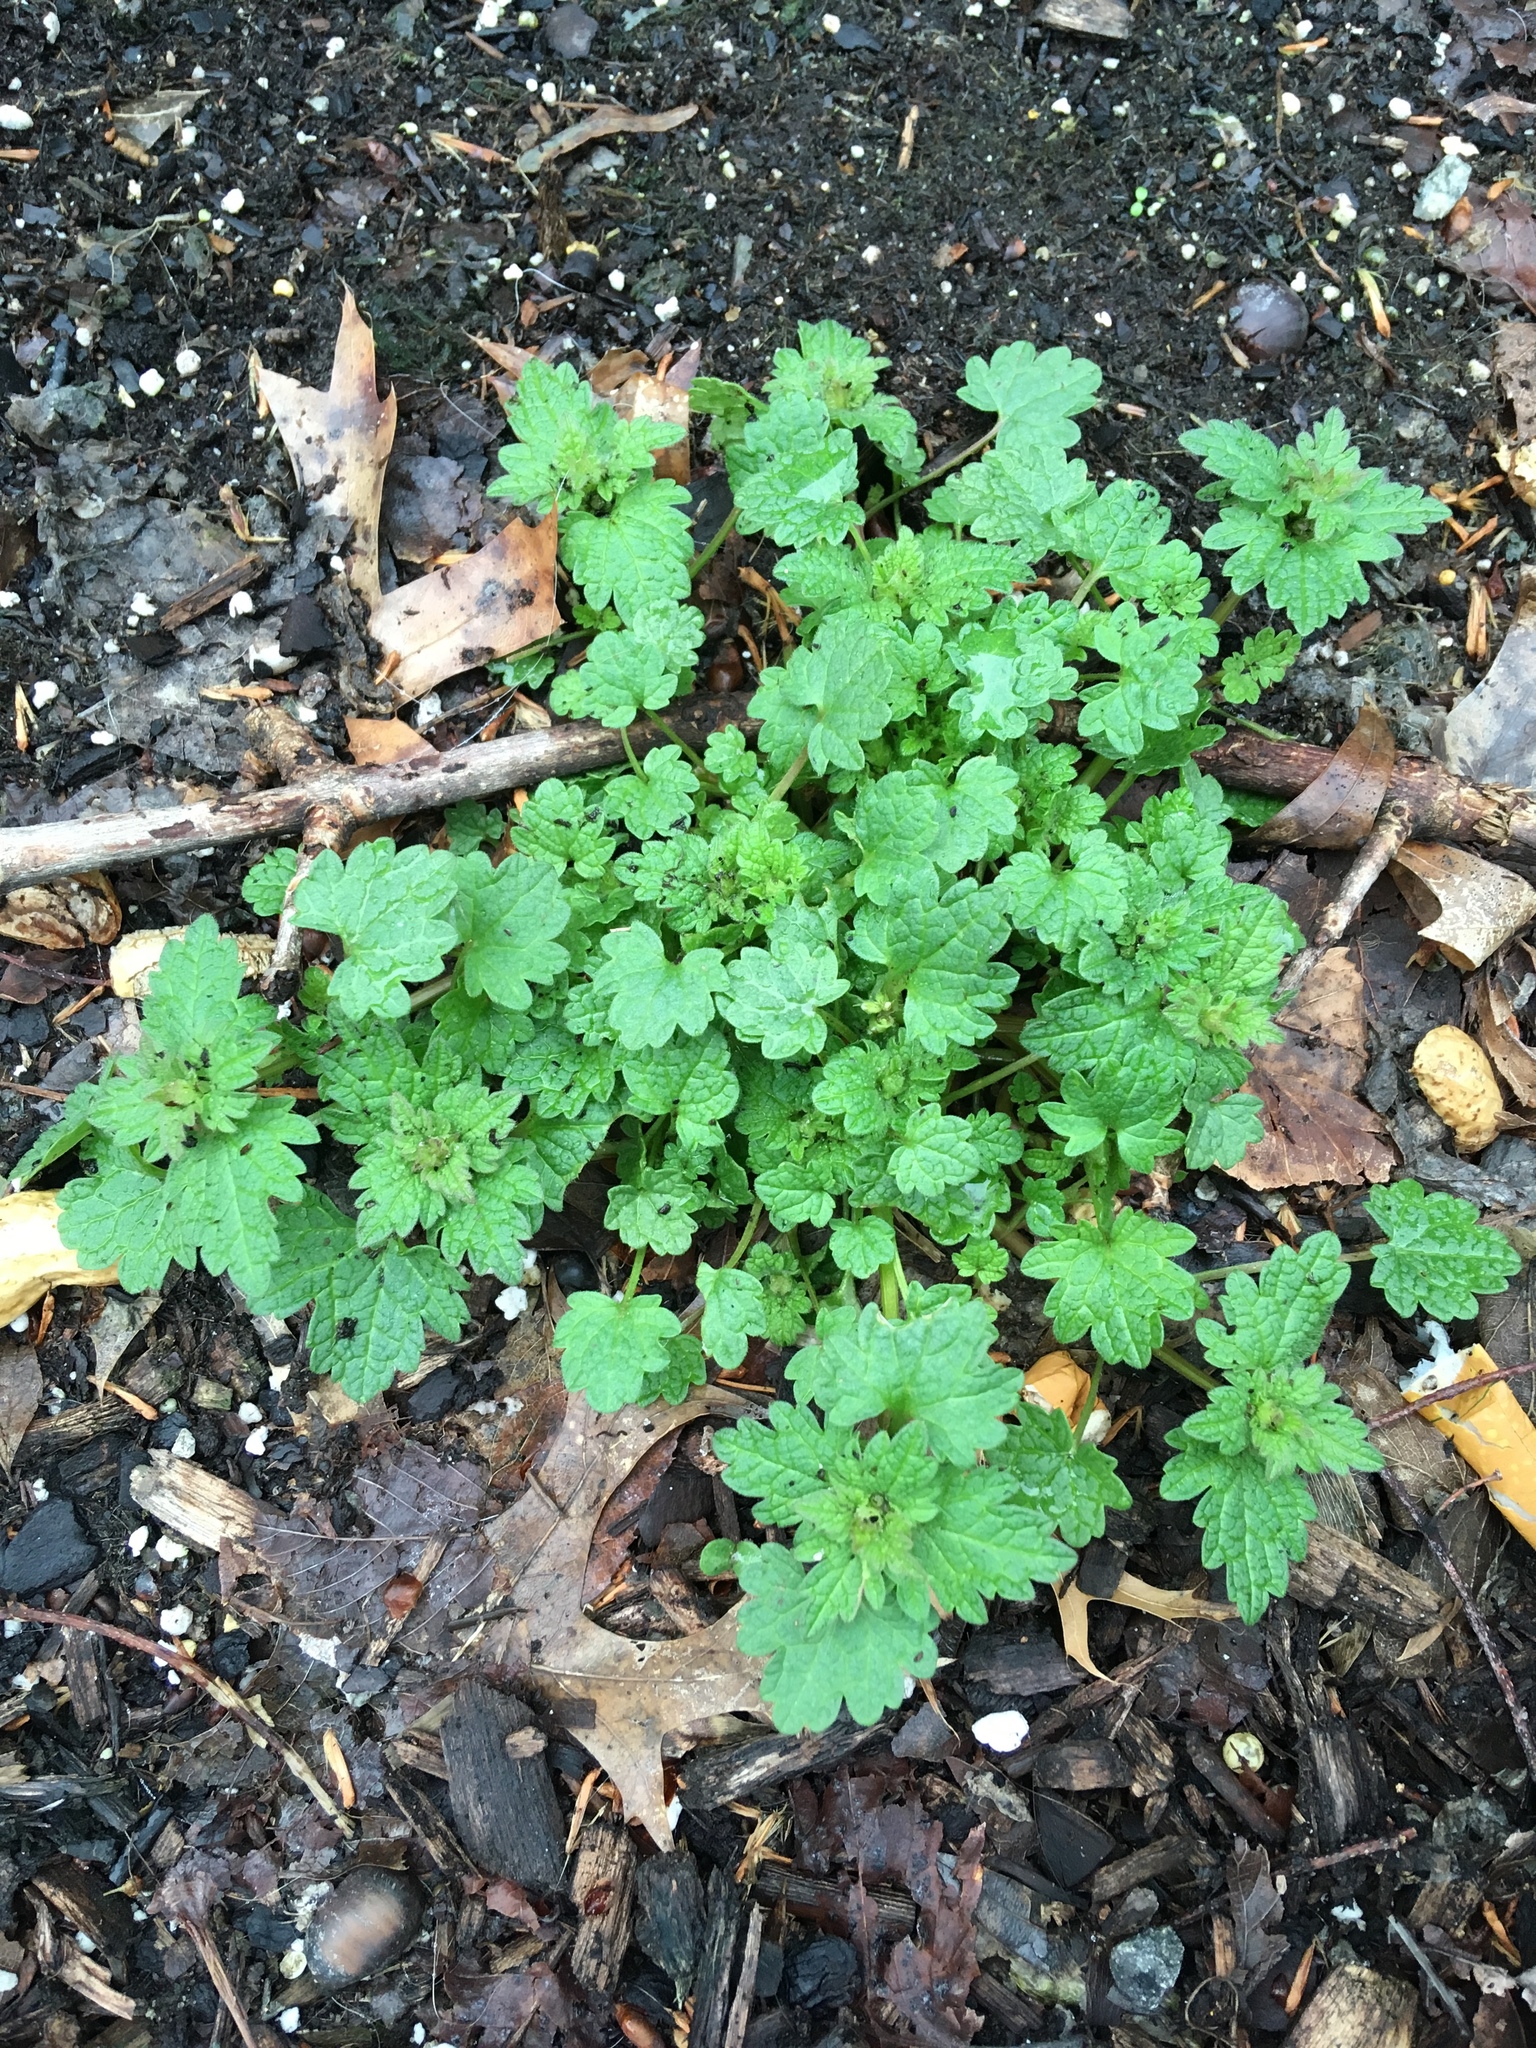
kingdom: Plantae
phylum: Tracheophyta
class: Magnoliopsida
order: Lamiales
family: Lamiaceae
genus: Lamium
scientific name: Lamium hybridum
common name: Cut-leaved dead-nettle
